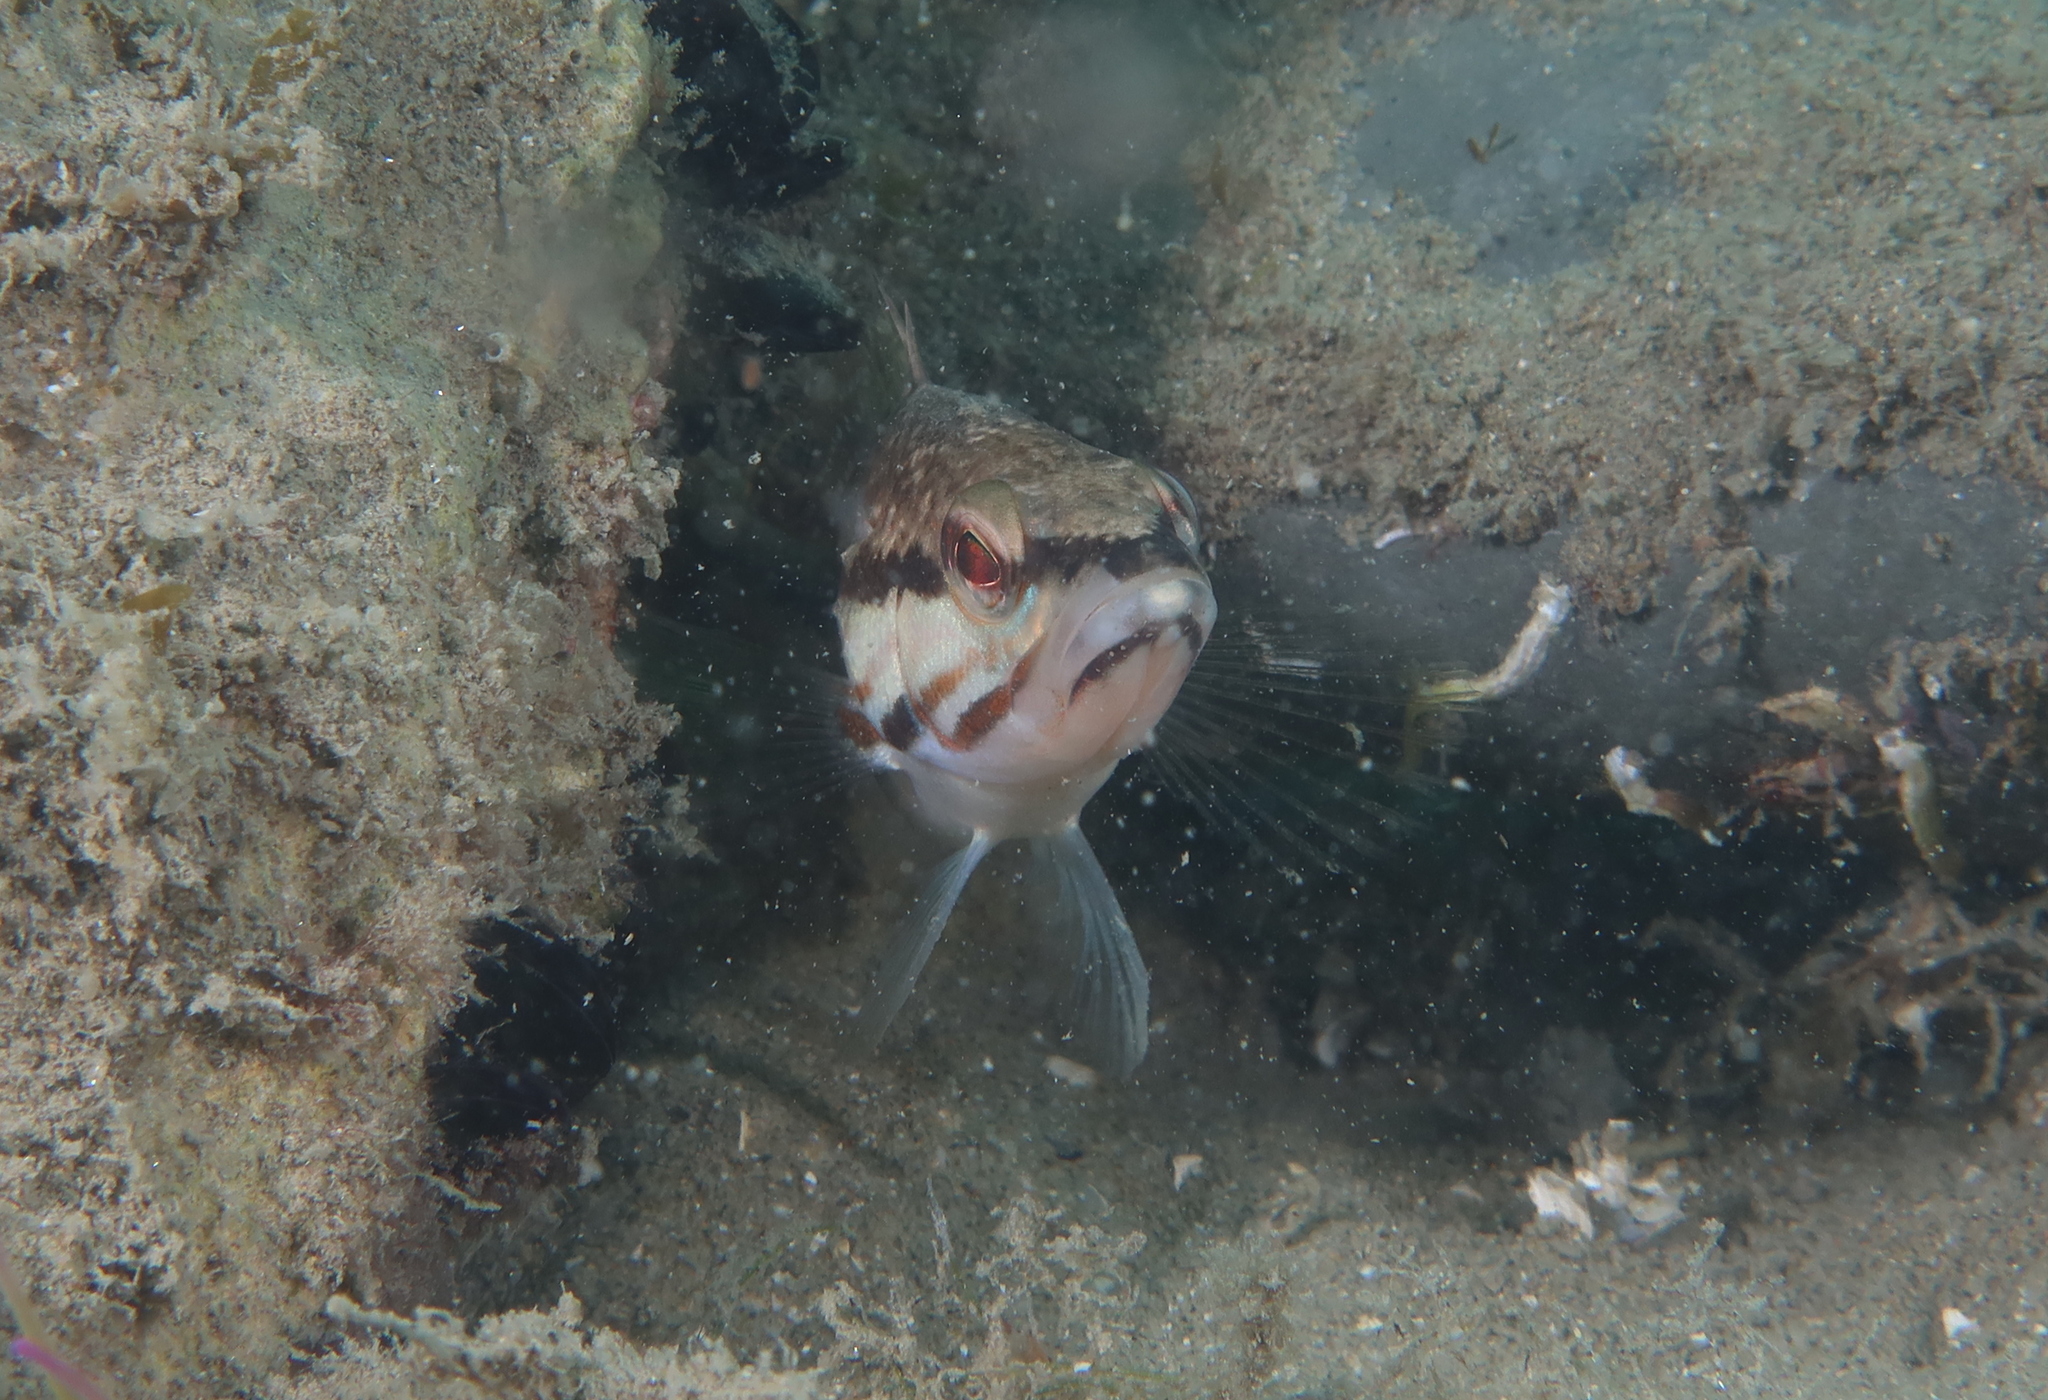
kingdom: Animalia
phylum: Chordata
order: Perciformes
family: Serranidae
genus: Serranus
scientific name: Serranus cabrilla
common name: Comber
